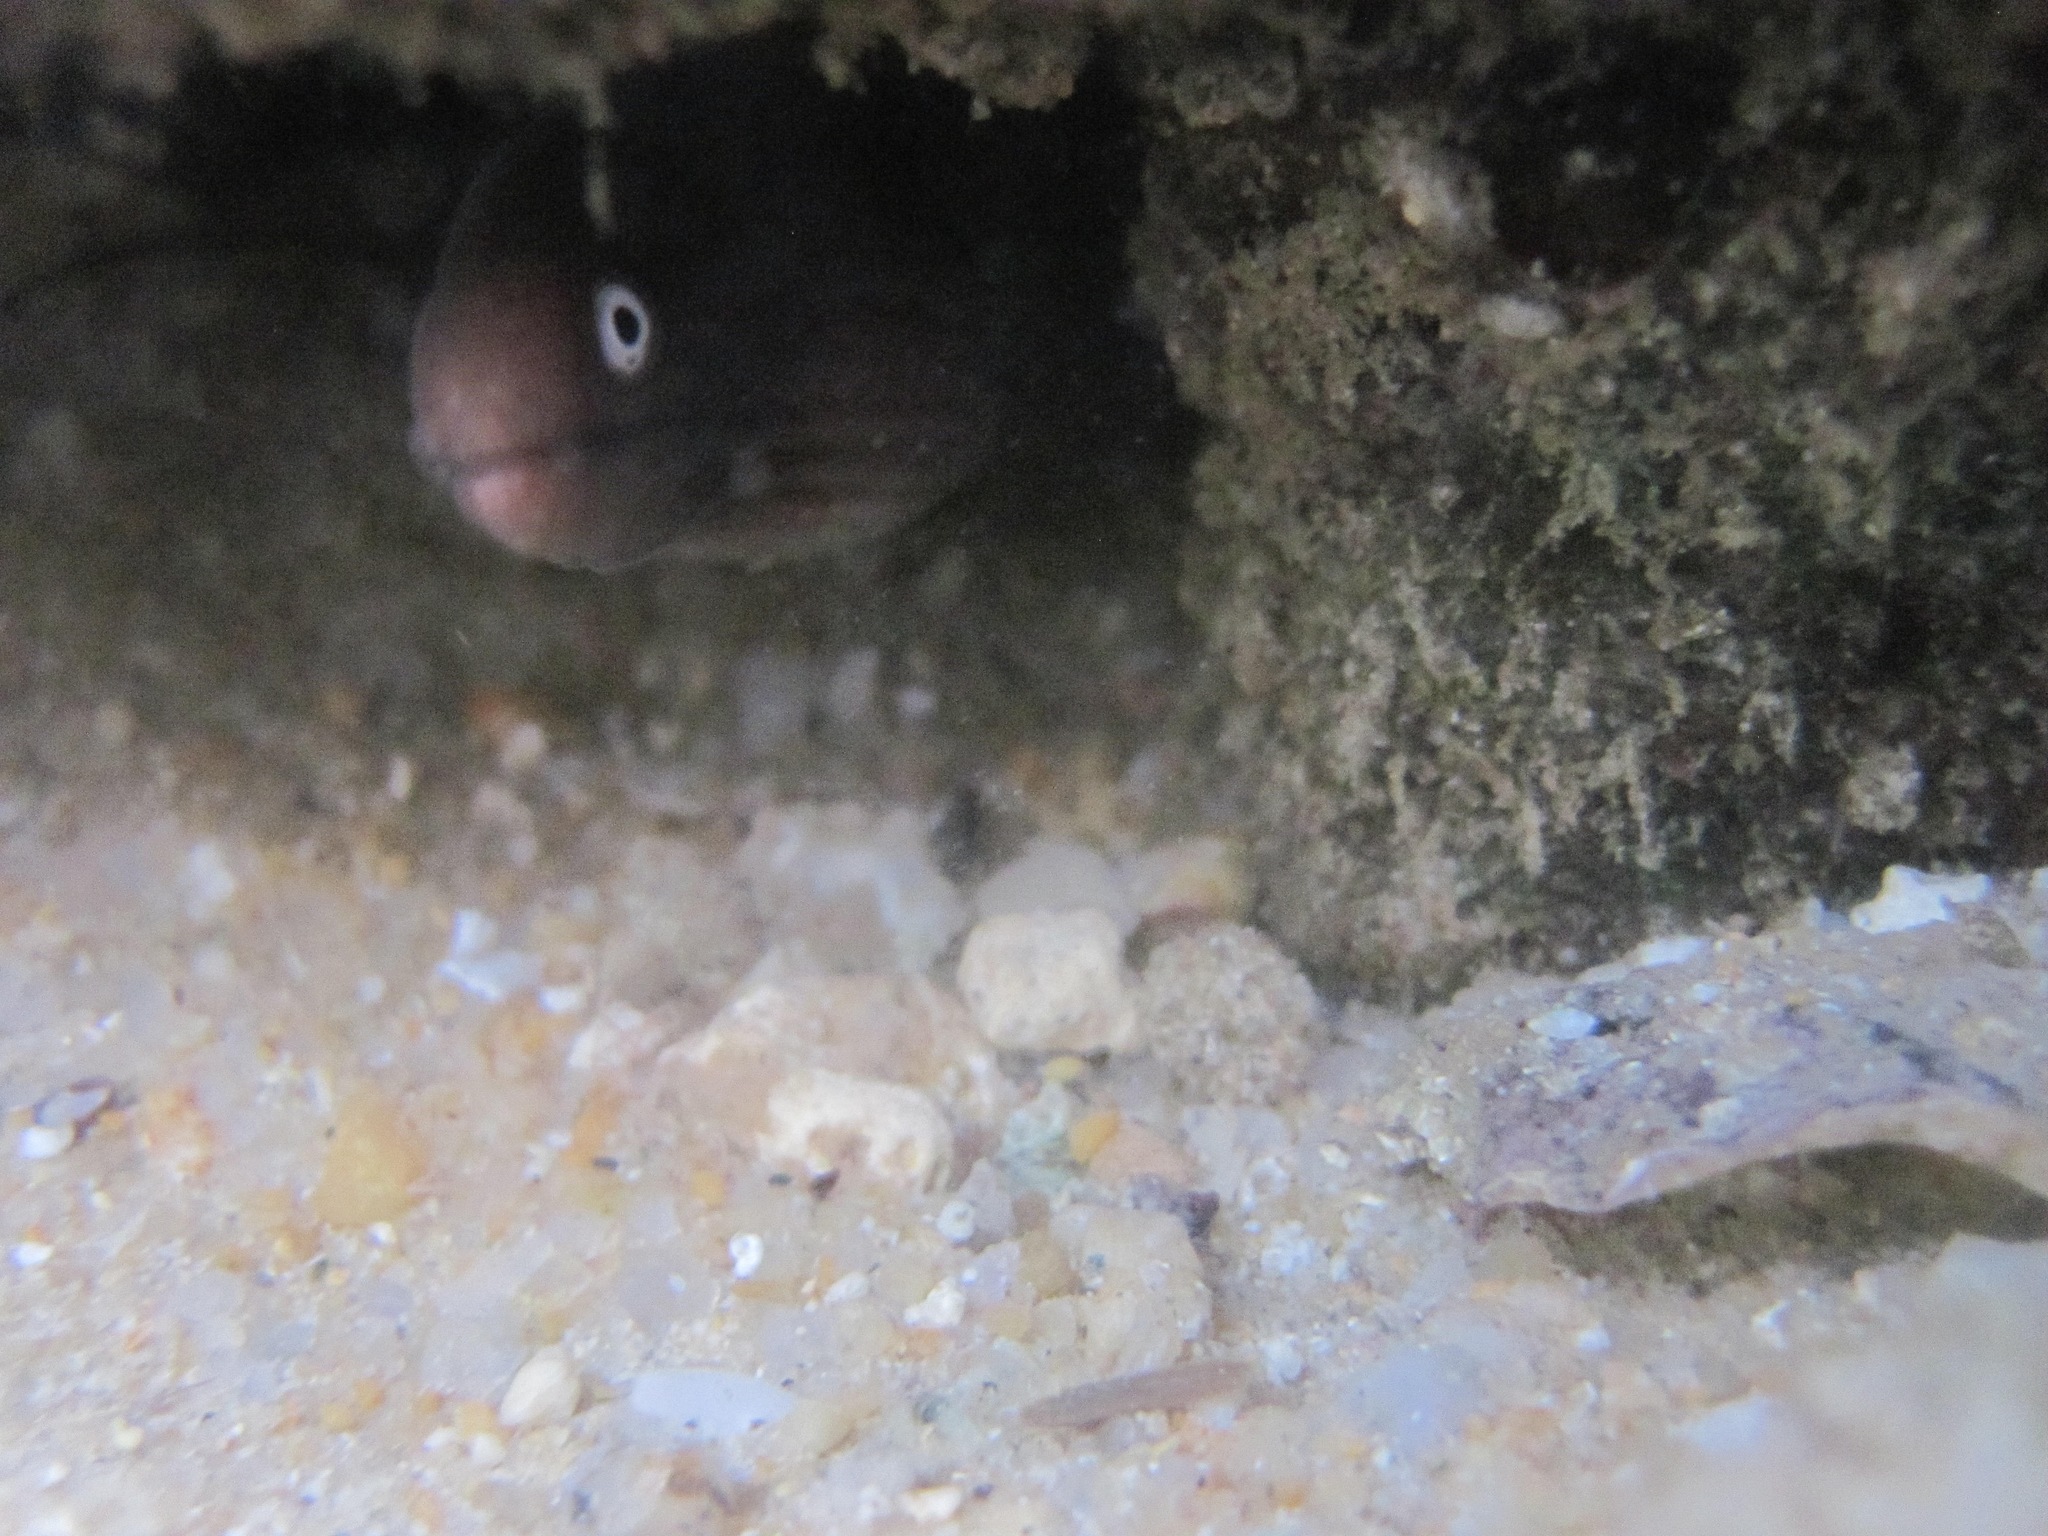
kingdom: Animalia
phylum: Chordata
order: Anguilliformes
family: Muraenidae
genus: Gymnothorax
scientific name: Gymnothorax thyrsoideus
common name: Greyface moray
